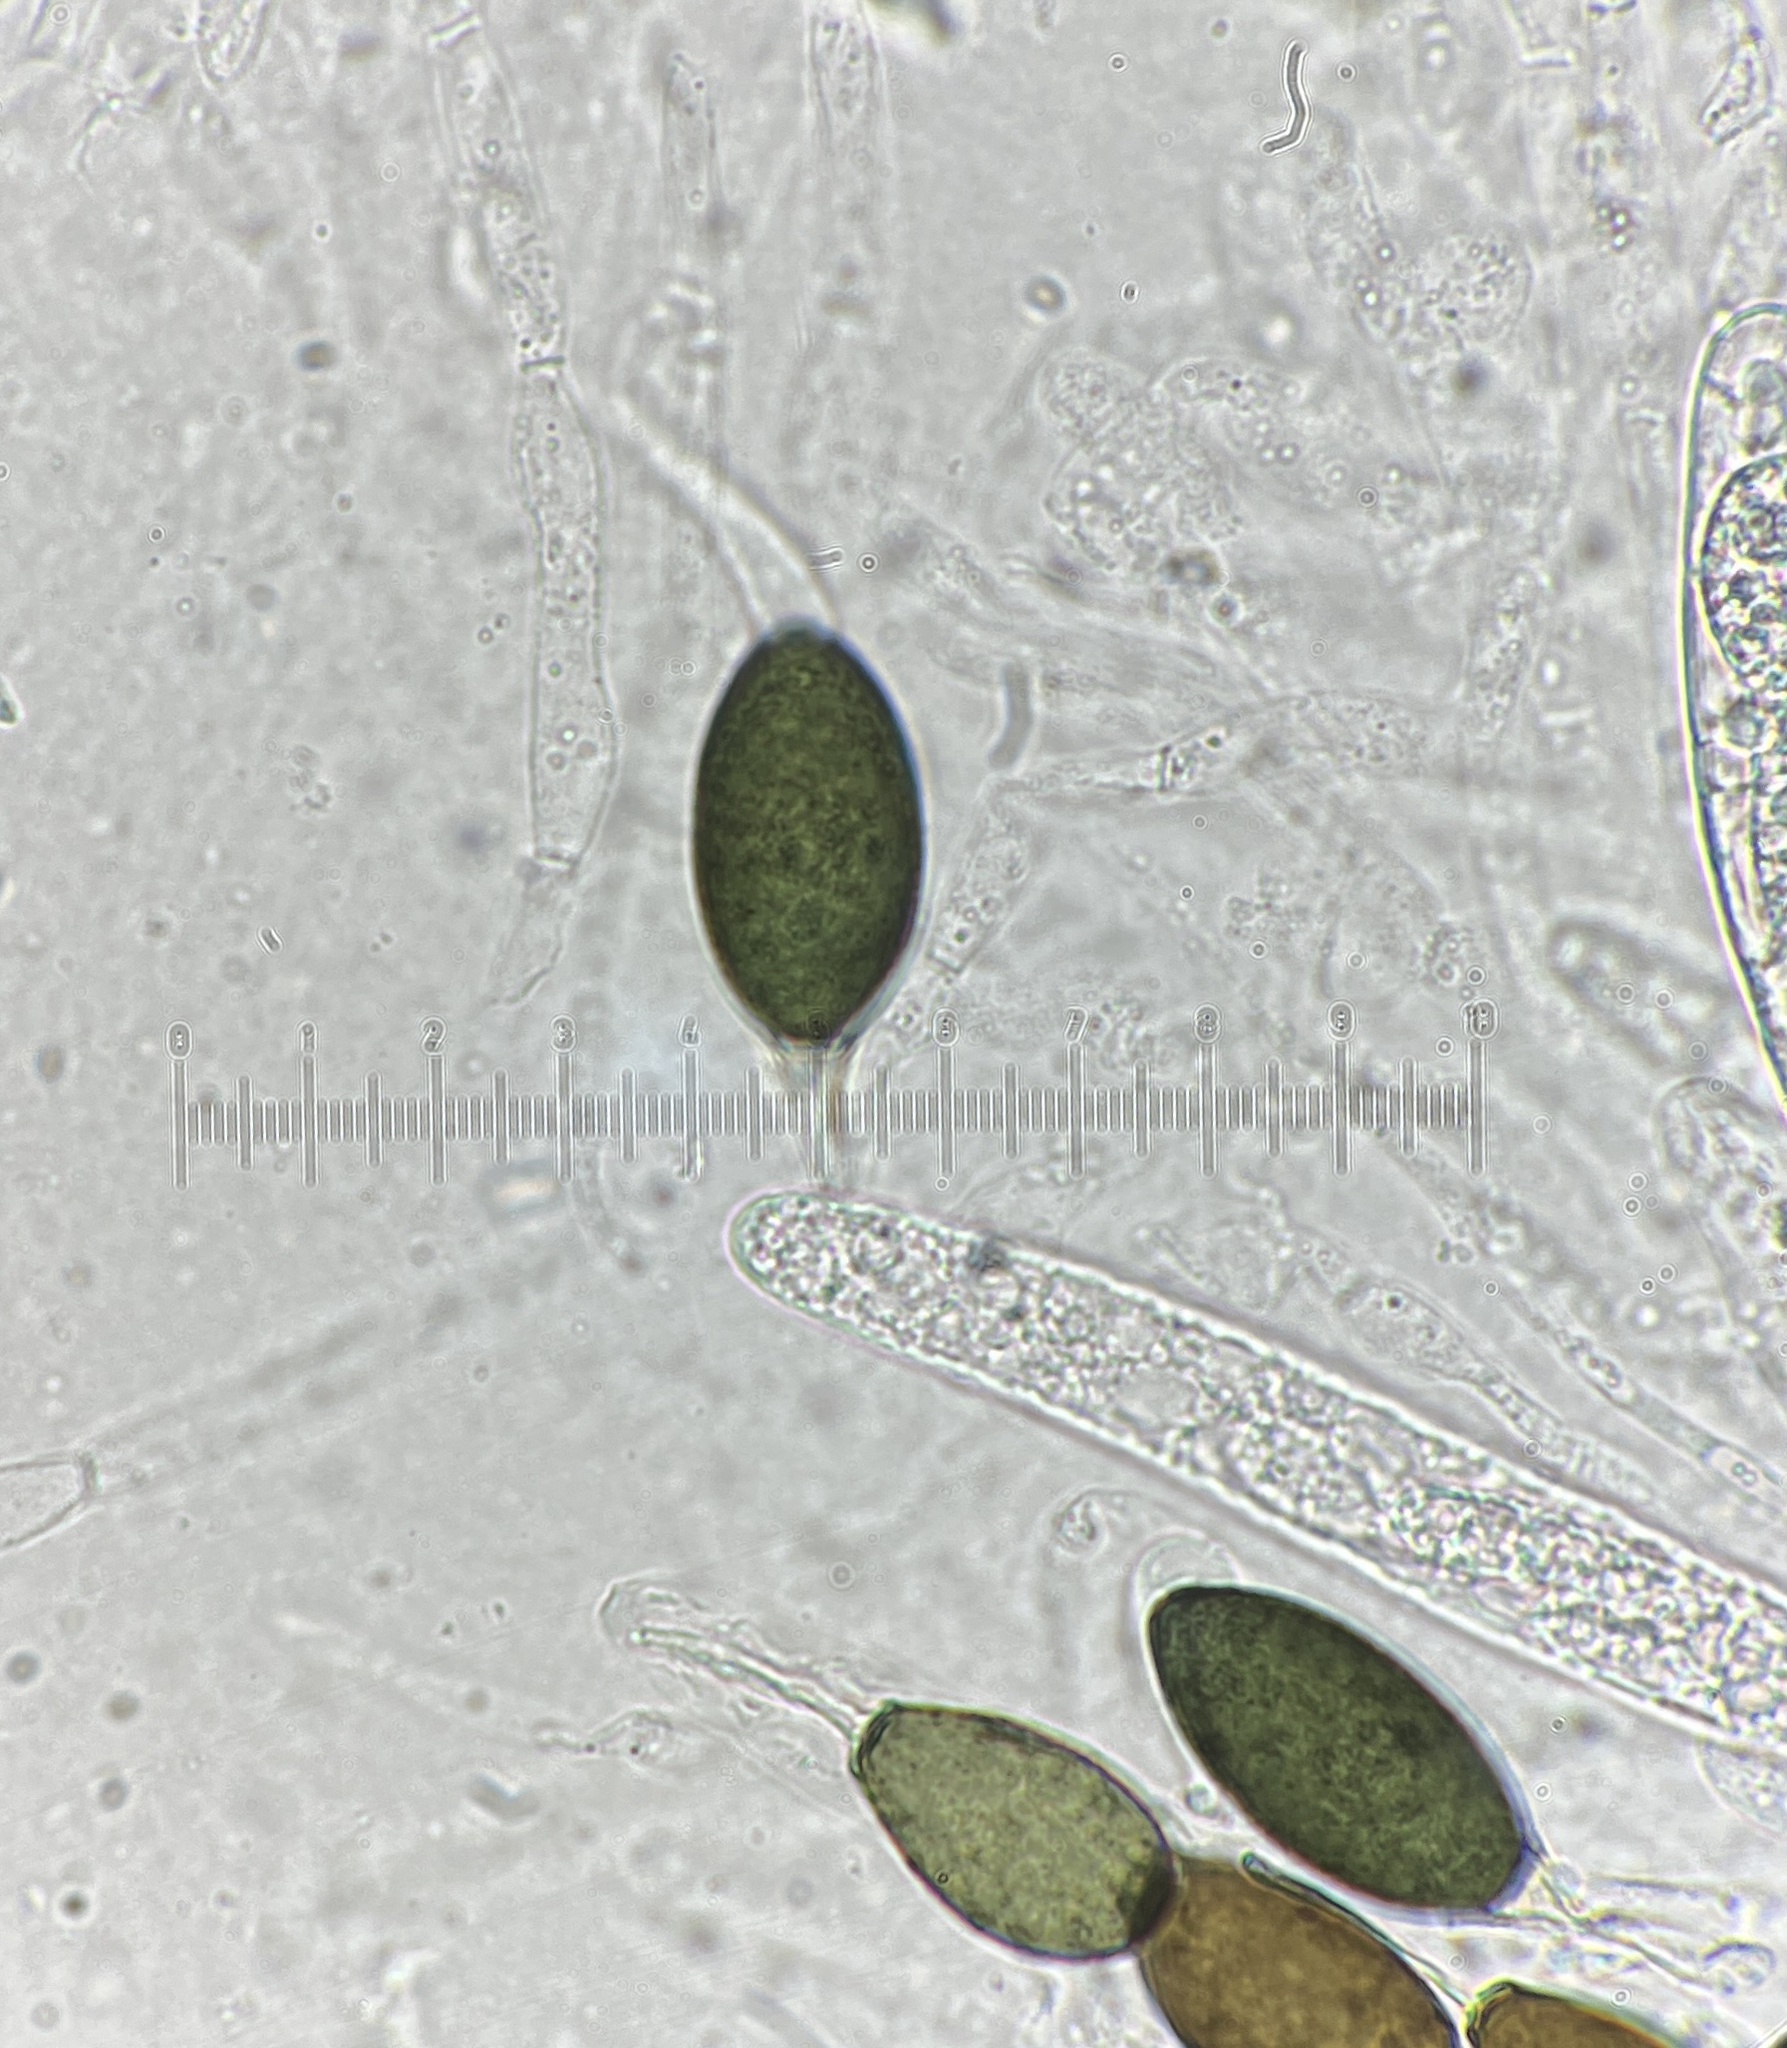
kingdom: Fungi
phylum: Ascomycota
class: Sordariomycetes
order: Sordariales
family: Podosporaceae
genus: Triangularia
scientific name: Triangularia comata
